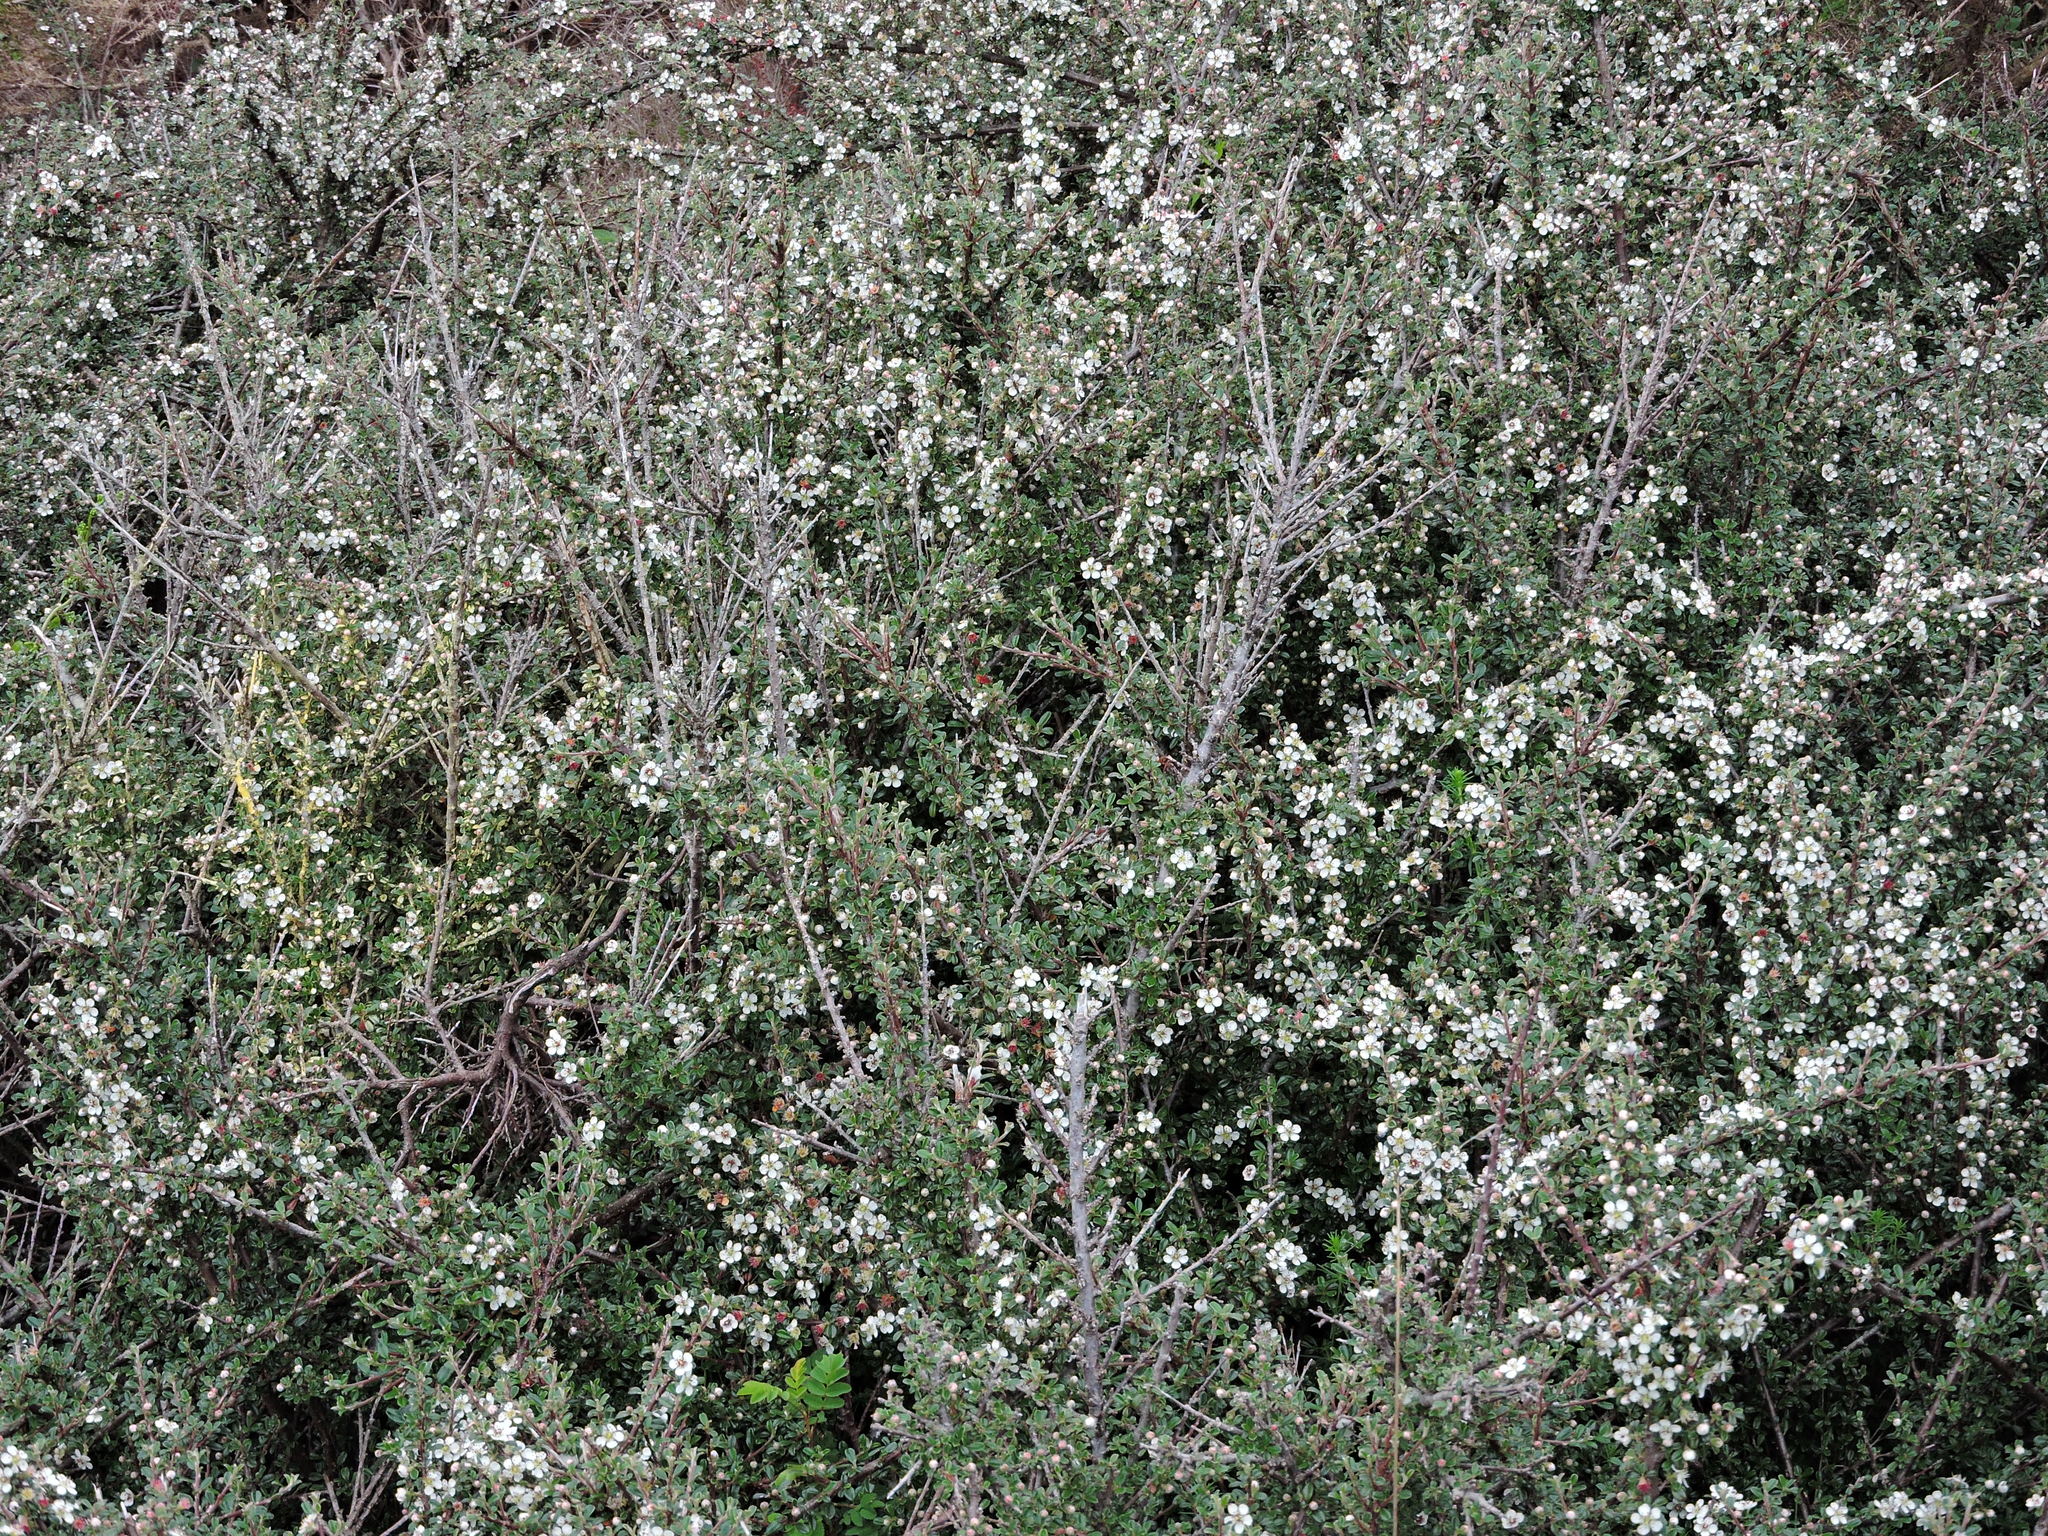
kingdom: Plantae
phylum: Tracheophyta
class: Magnoliopsida
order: Rosales
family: Rosaceae
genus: Cotoneaster
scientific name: Cotoneaster microphyllus
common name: Small-leaved cotoneaster
